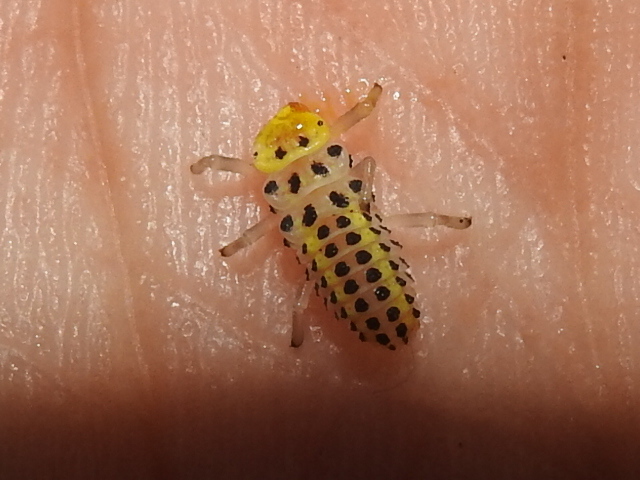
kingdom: Animalia
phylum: Arthropoda
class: Insecta
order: Coleoptera
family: Coccinellidae
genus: Halyzia
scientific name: Halyzia sedecimguttata
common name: Orange ladybird
